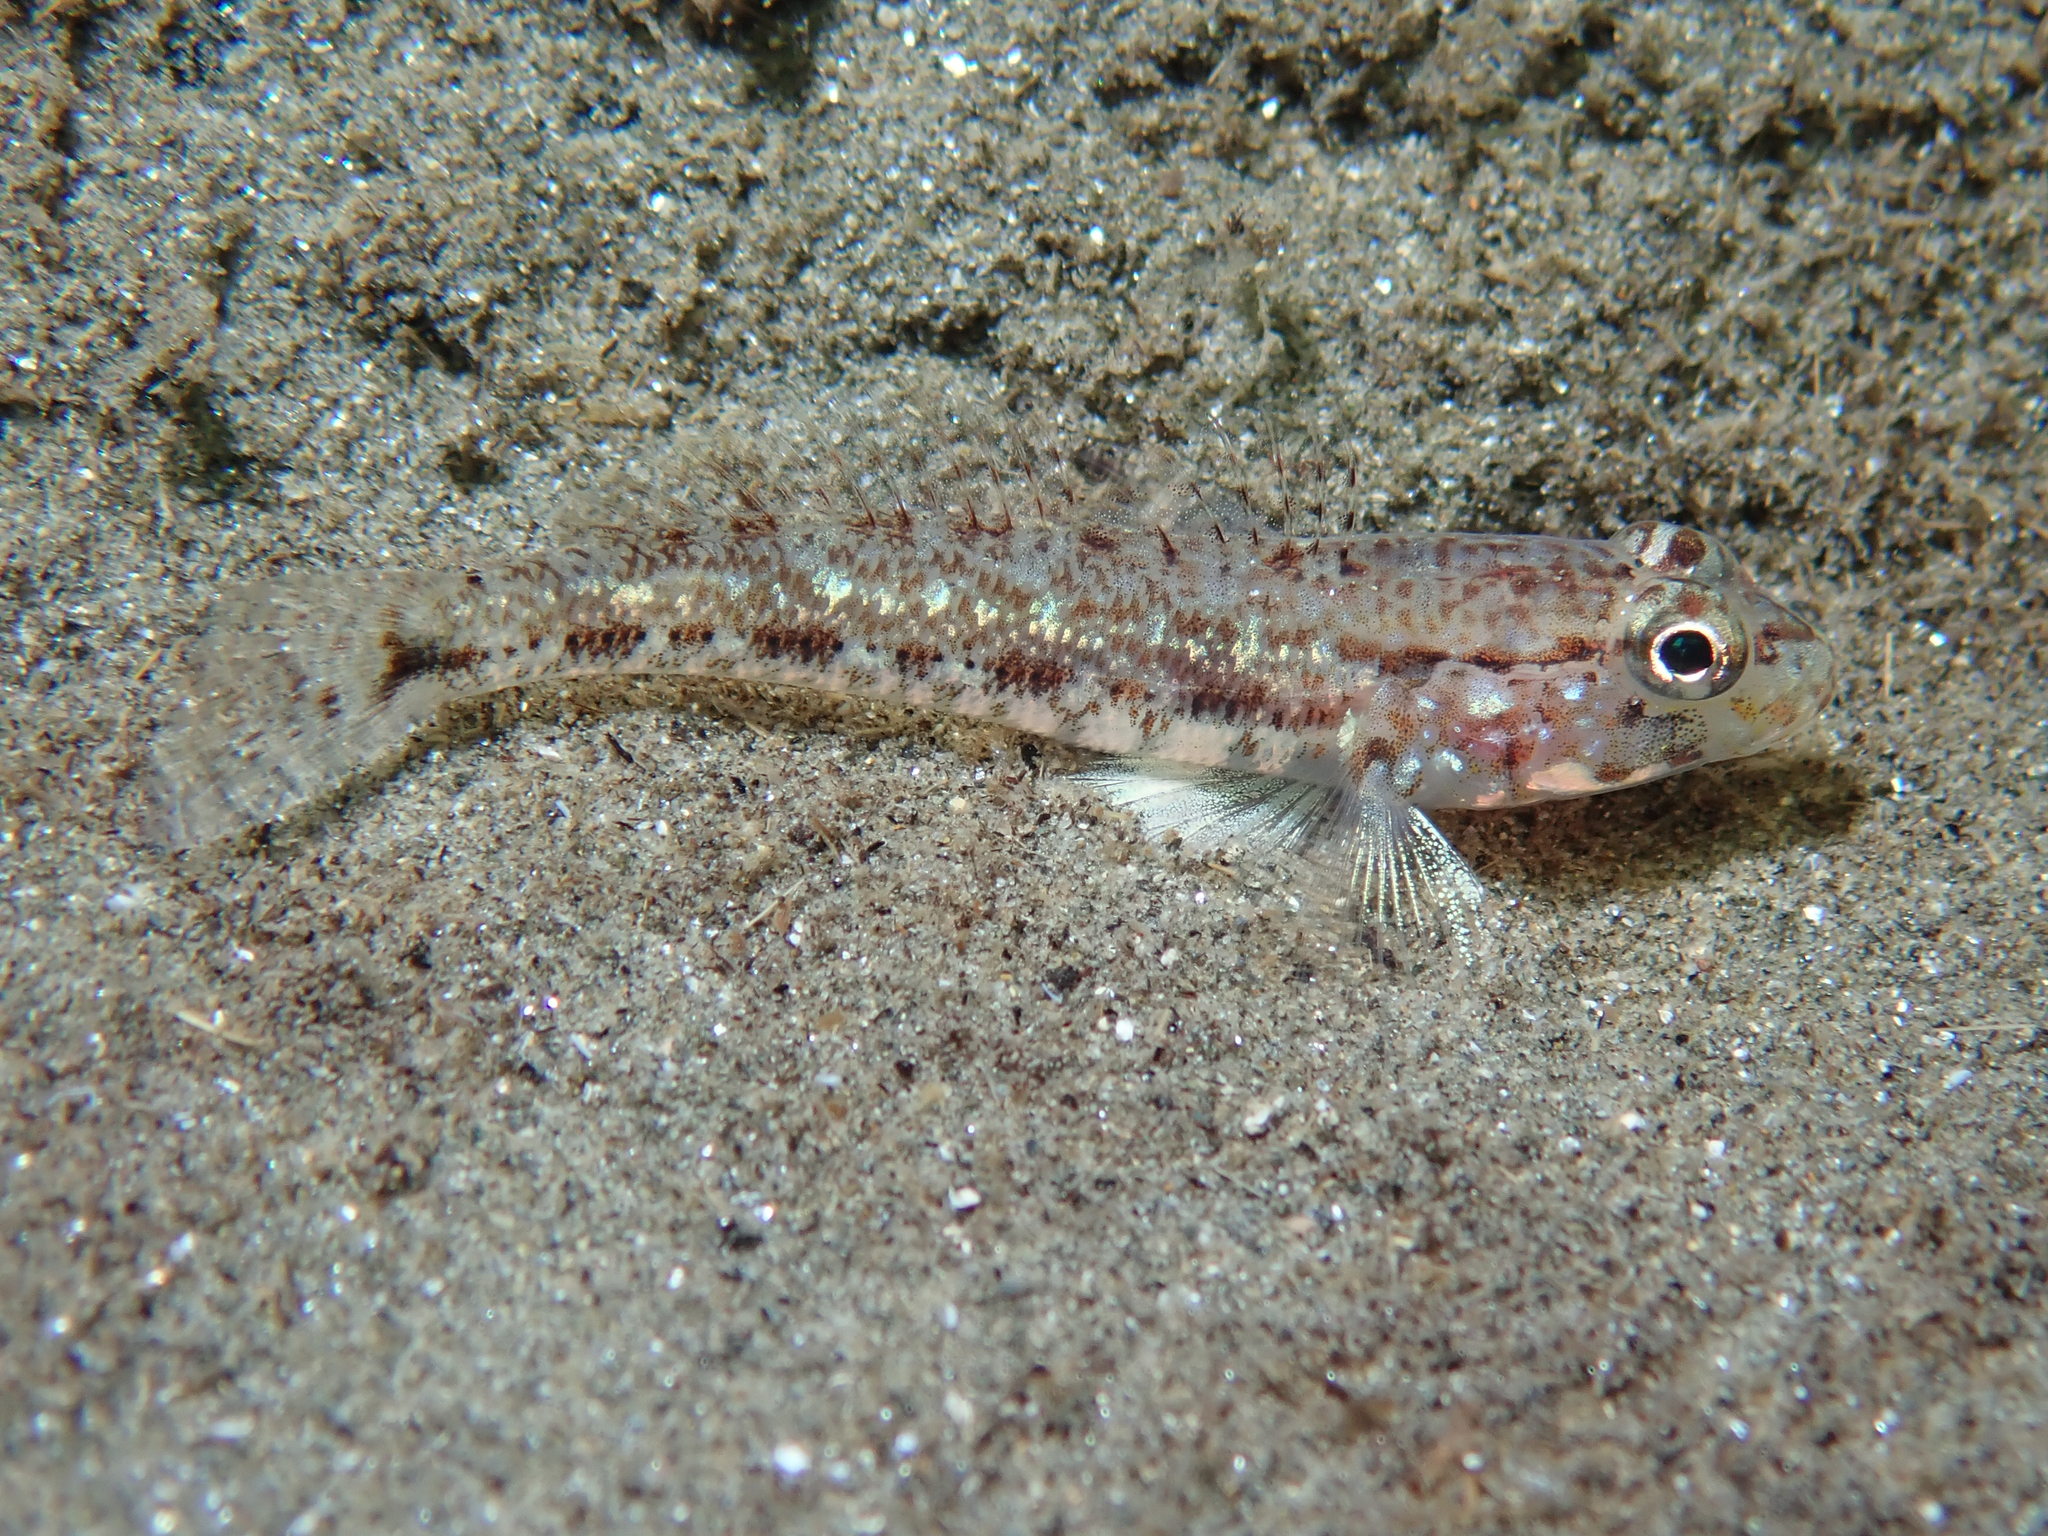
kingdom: Animalia
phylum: Chordata
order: Perciformes
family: Gobiidae
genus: Gobius
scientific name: Gobius geniporus
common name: Slender goby
